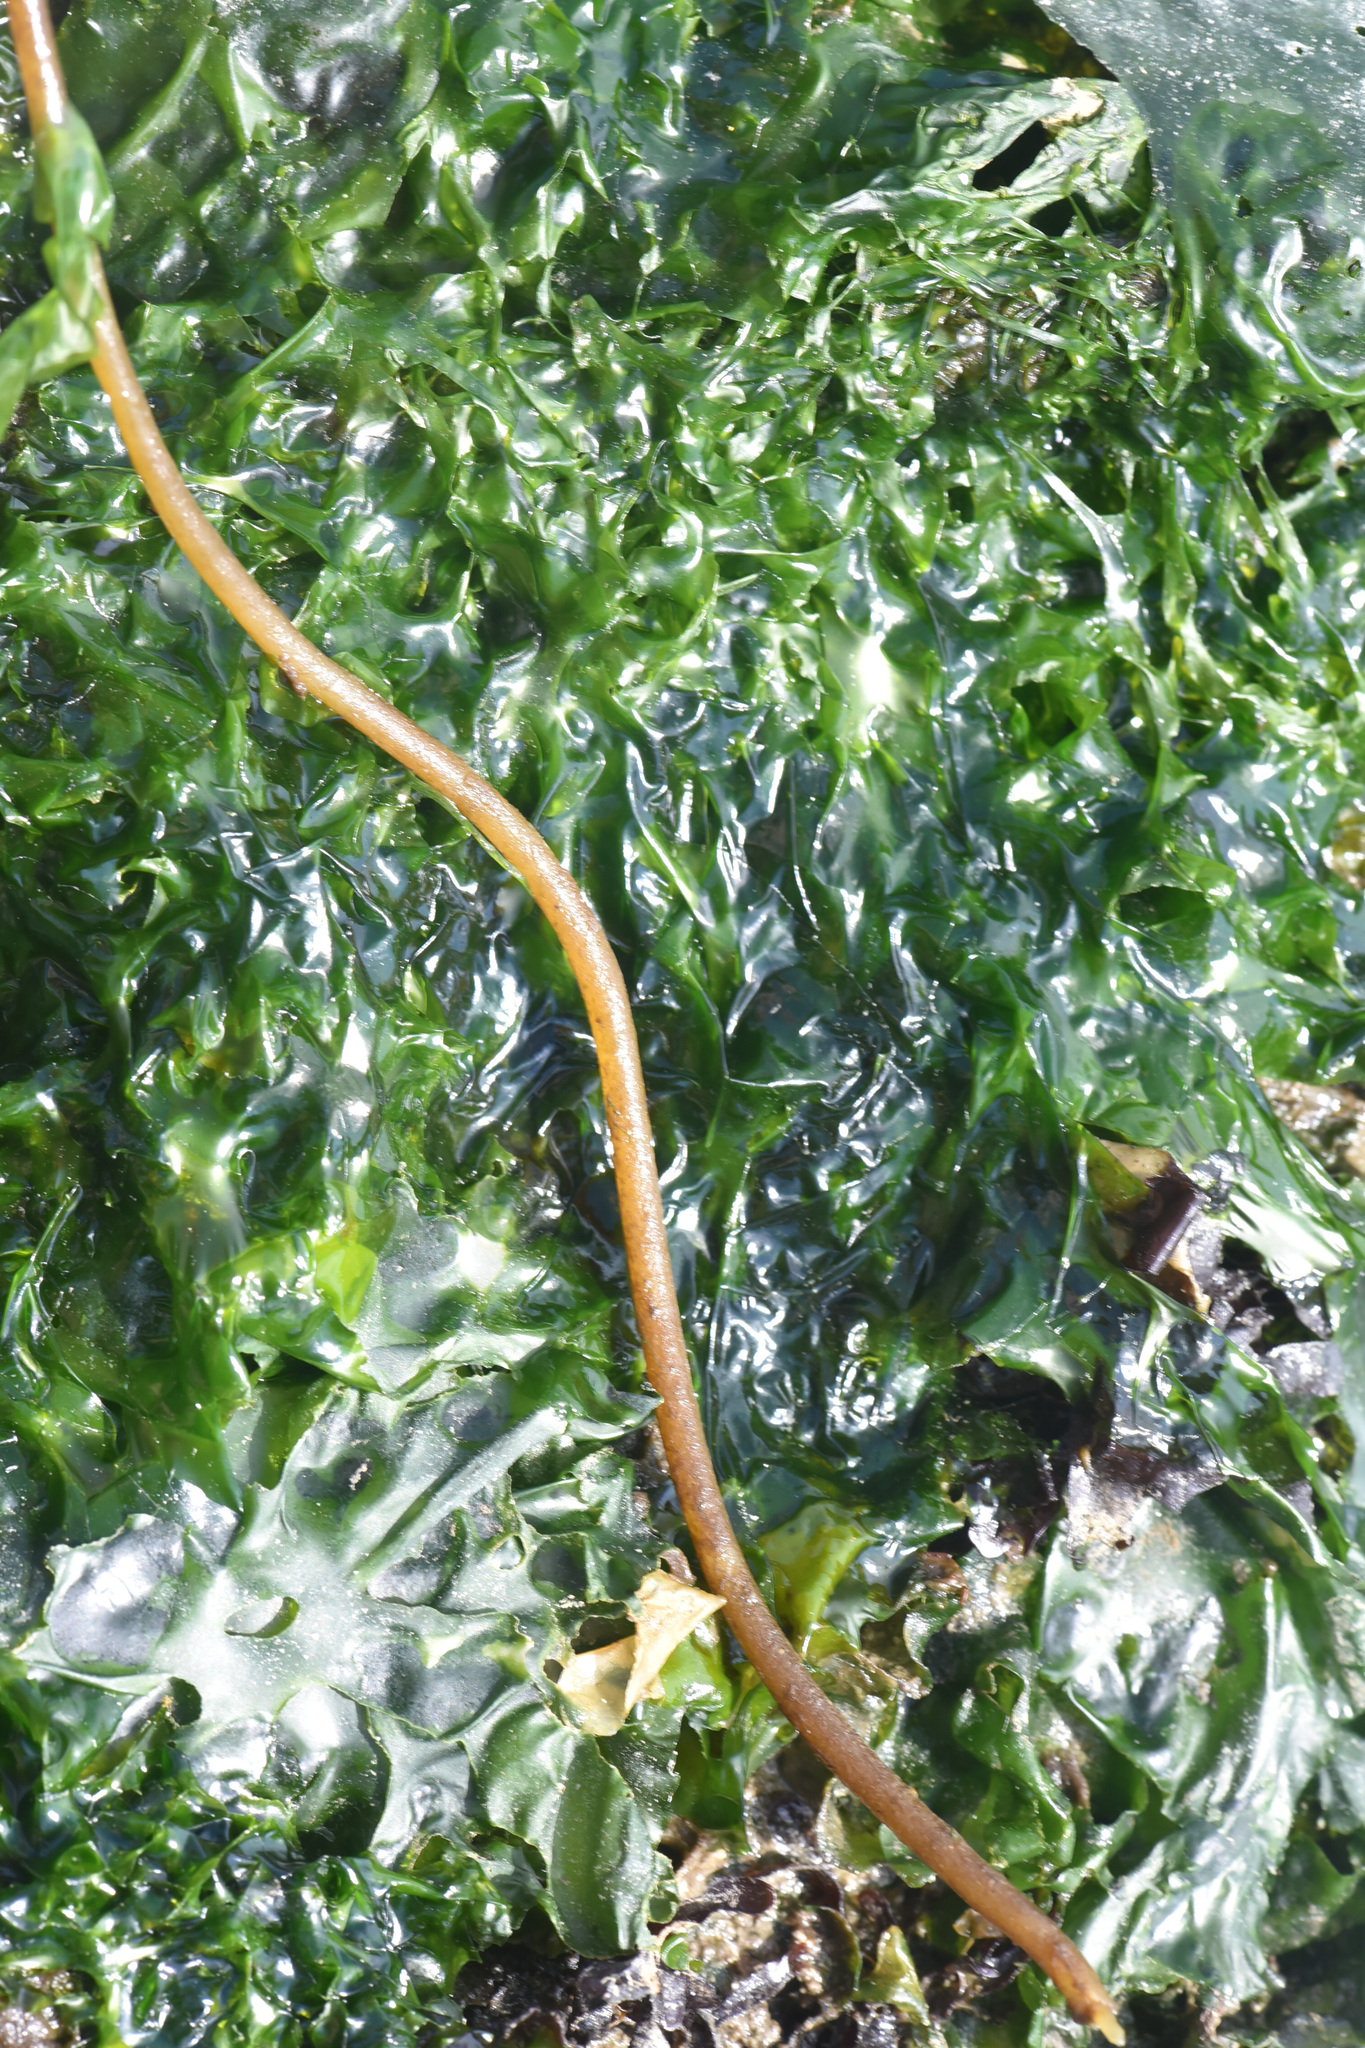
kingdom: Chromista
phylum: Ochrophyta
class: Phaeophyceae
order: Laminariales
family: Laminariaceae
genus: Nereocystis
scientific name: Nereocystis luetkeana
